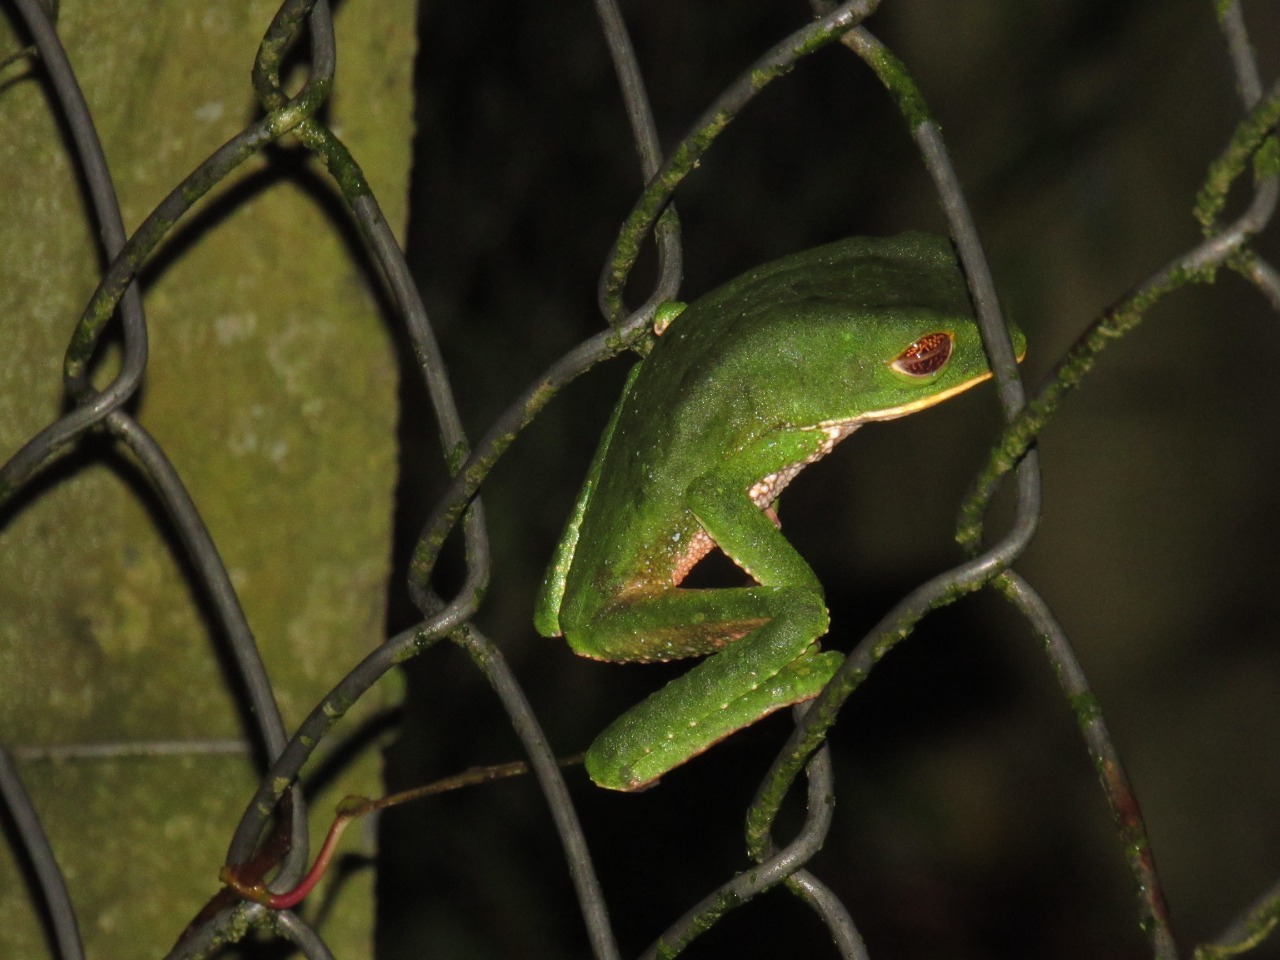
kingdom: Animalia
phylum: Chordata
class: Amphibia
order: Anura
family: Phyllomedusidae
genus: Phyllomedusa
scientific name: Phyllomedusa venusta
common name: Lovely leaf frog
